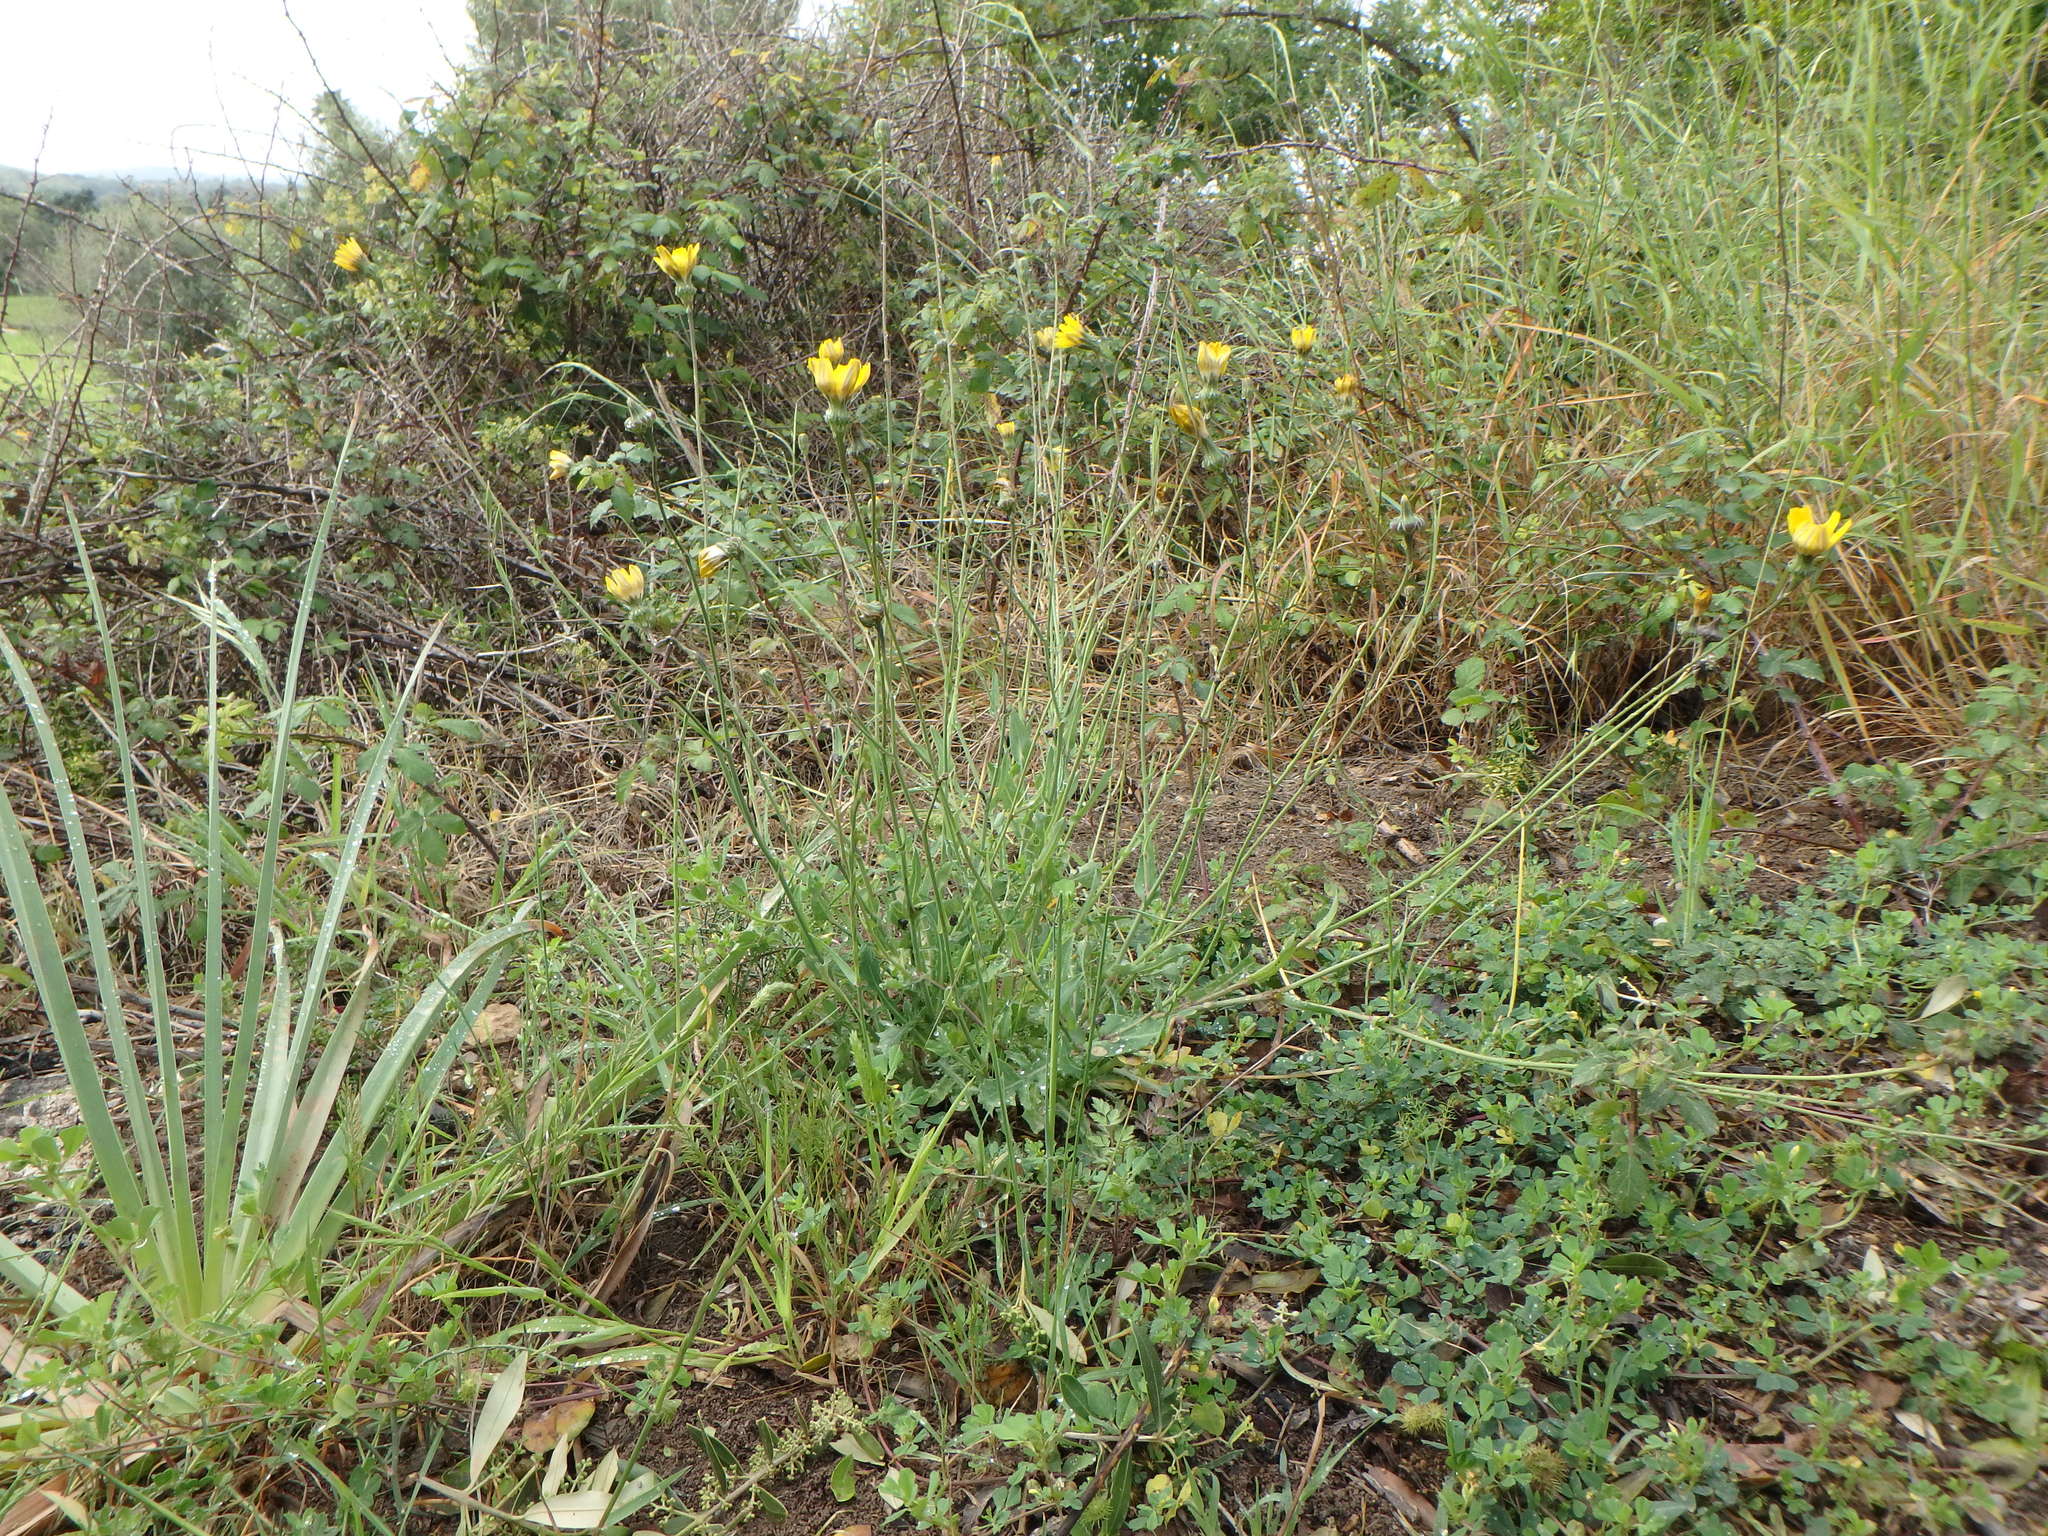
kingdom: Plantae
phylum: Tracheophyta
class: Magnoliopsida
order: Asterales
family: Asteraceae
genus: Reichardia
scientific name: Reichardia picroides
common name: Common brighteyes
